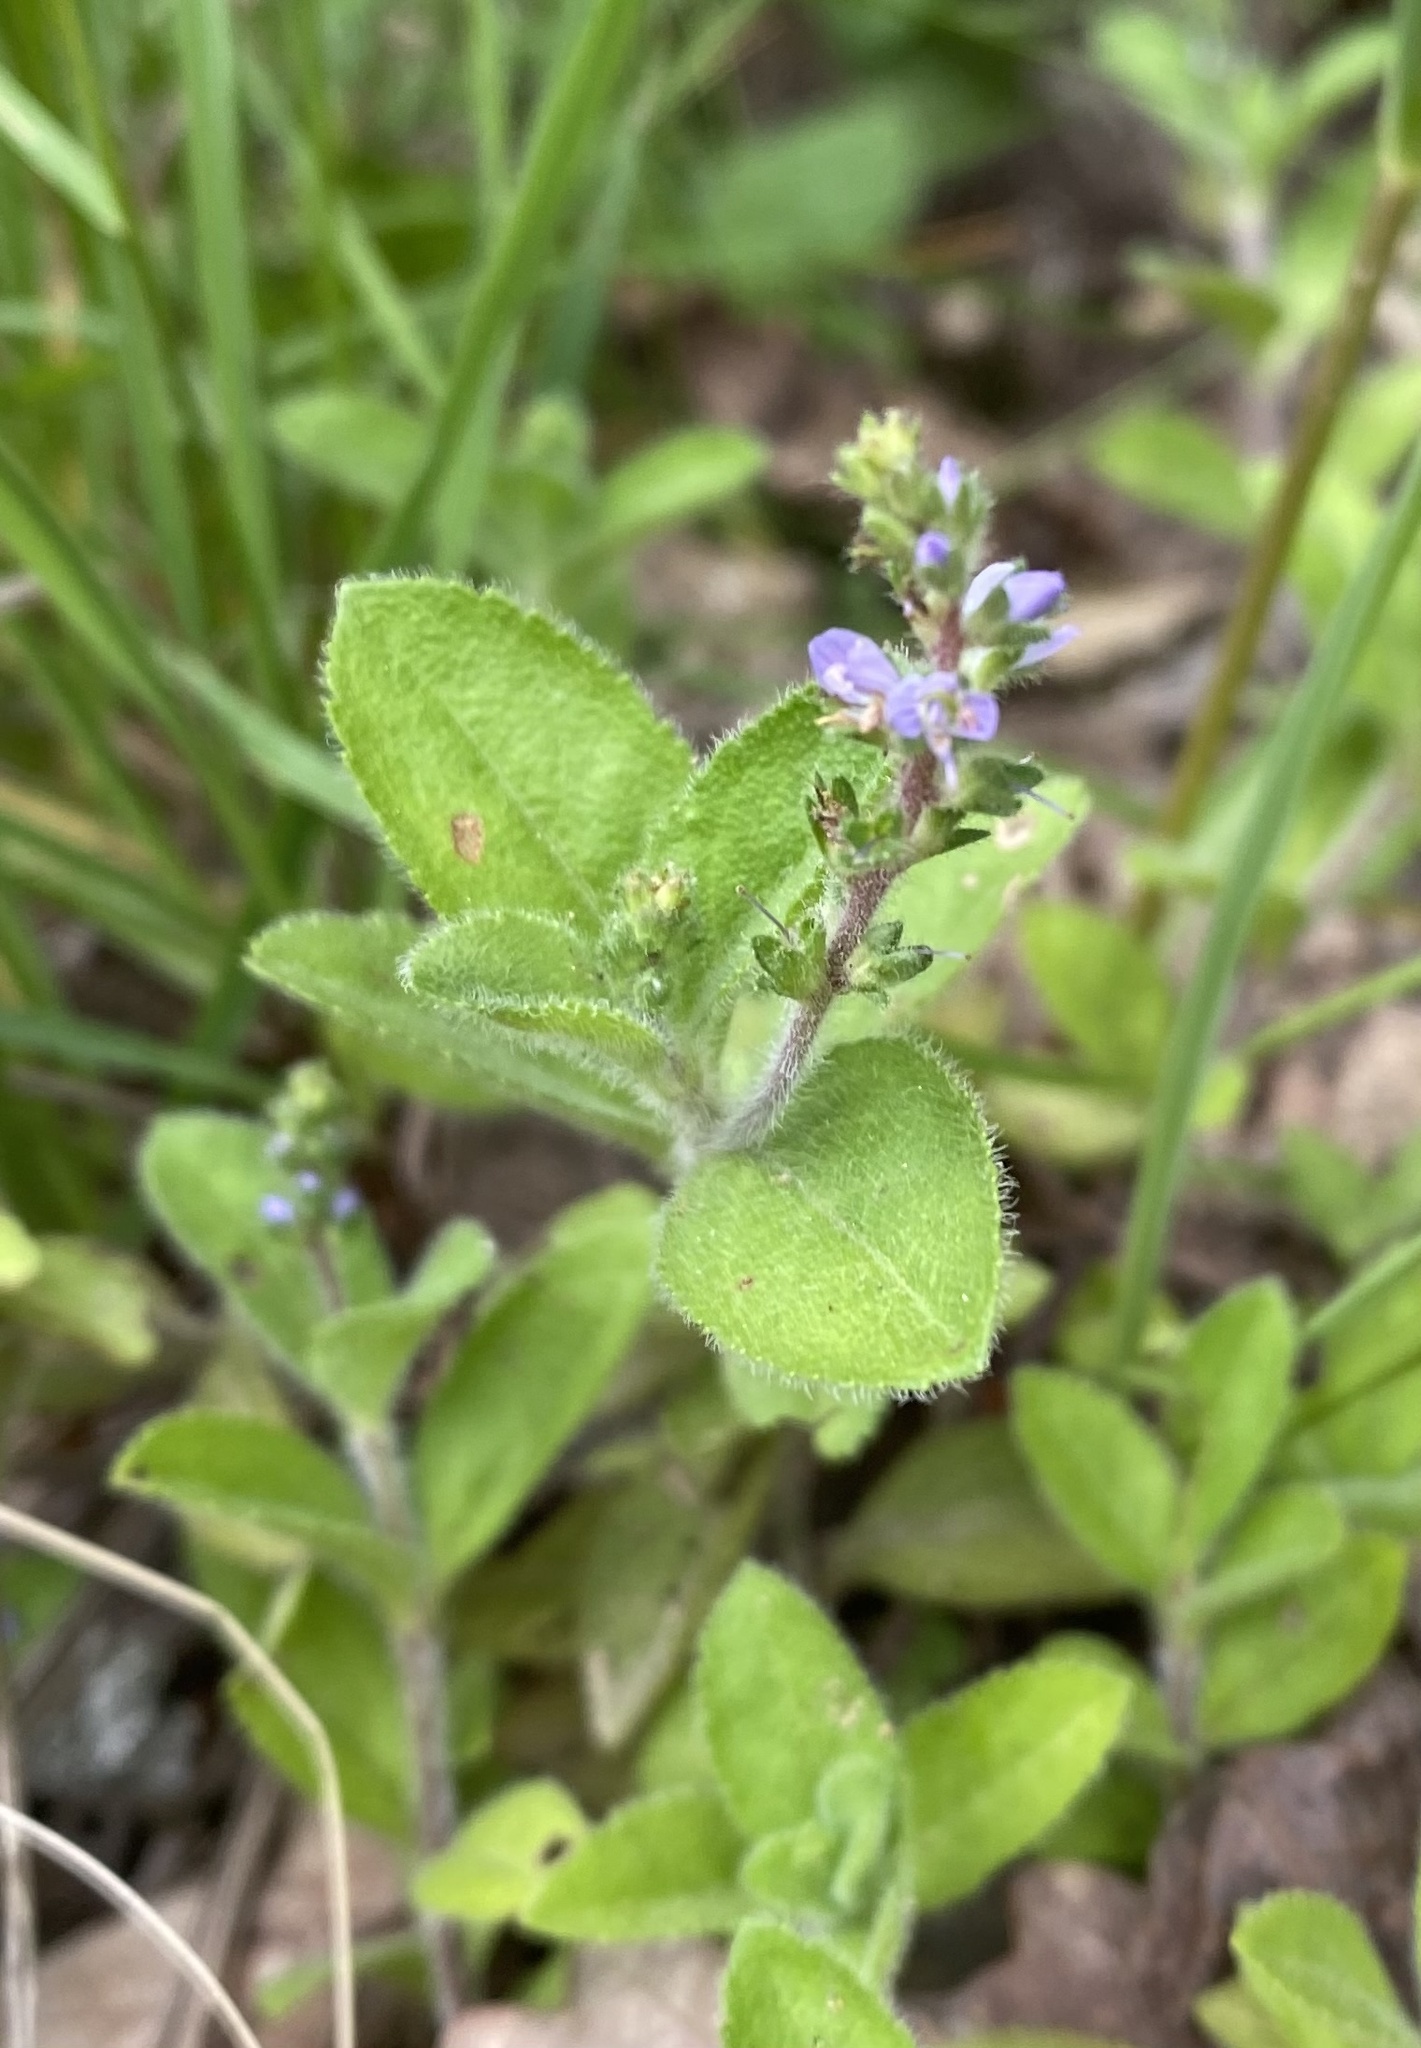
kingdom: Plantae
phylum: Tracheophyta
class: Magnoliopsida
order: Lamiales
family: Plantaginaceae
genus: Veronica
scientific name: Veronica officinalis
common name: Common speedwell
